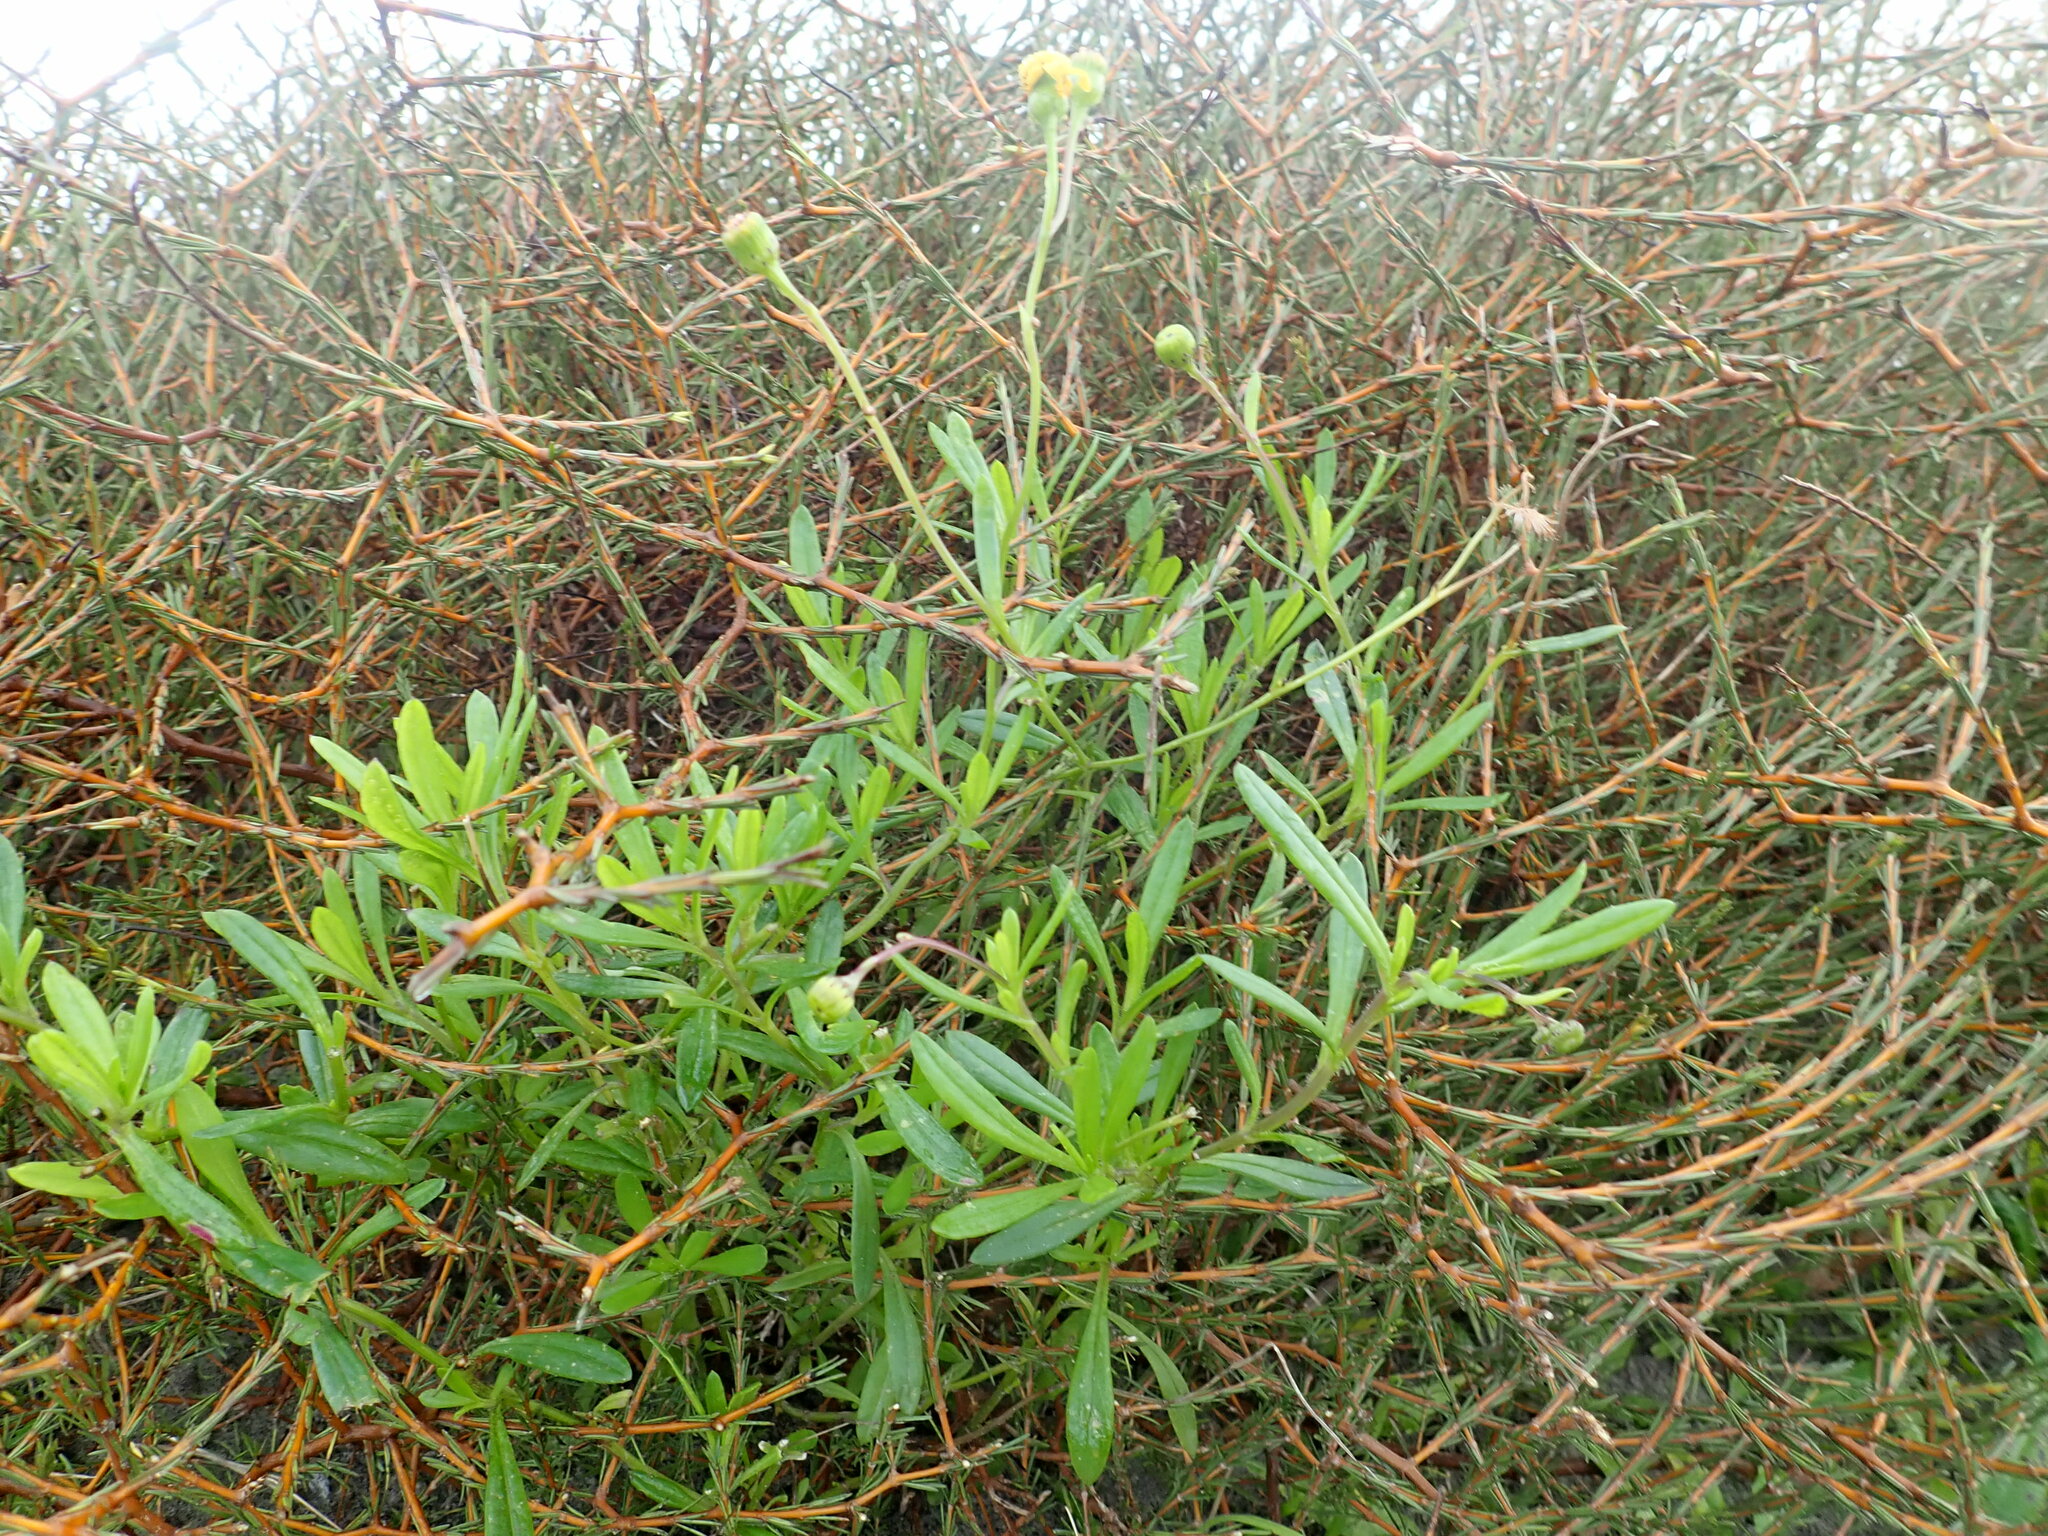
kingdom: Plantae
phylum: Tracheophyta
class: Magnoliopsida
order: Asterales
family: Asteraceae
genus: Senecio
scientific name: Senecio skirrhodon
